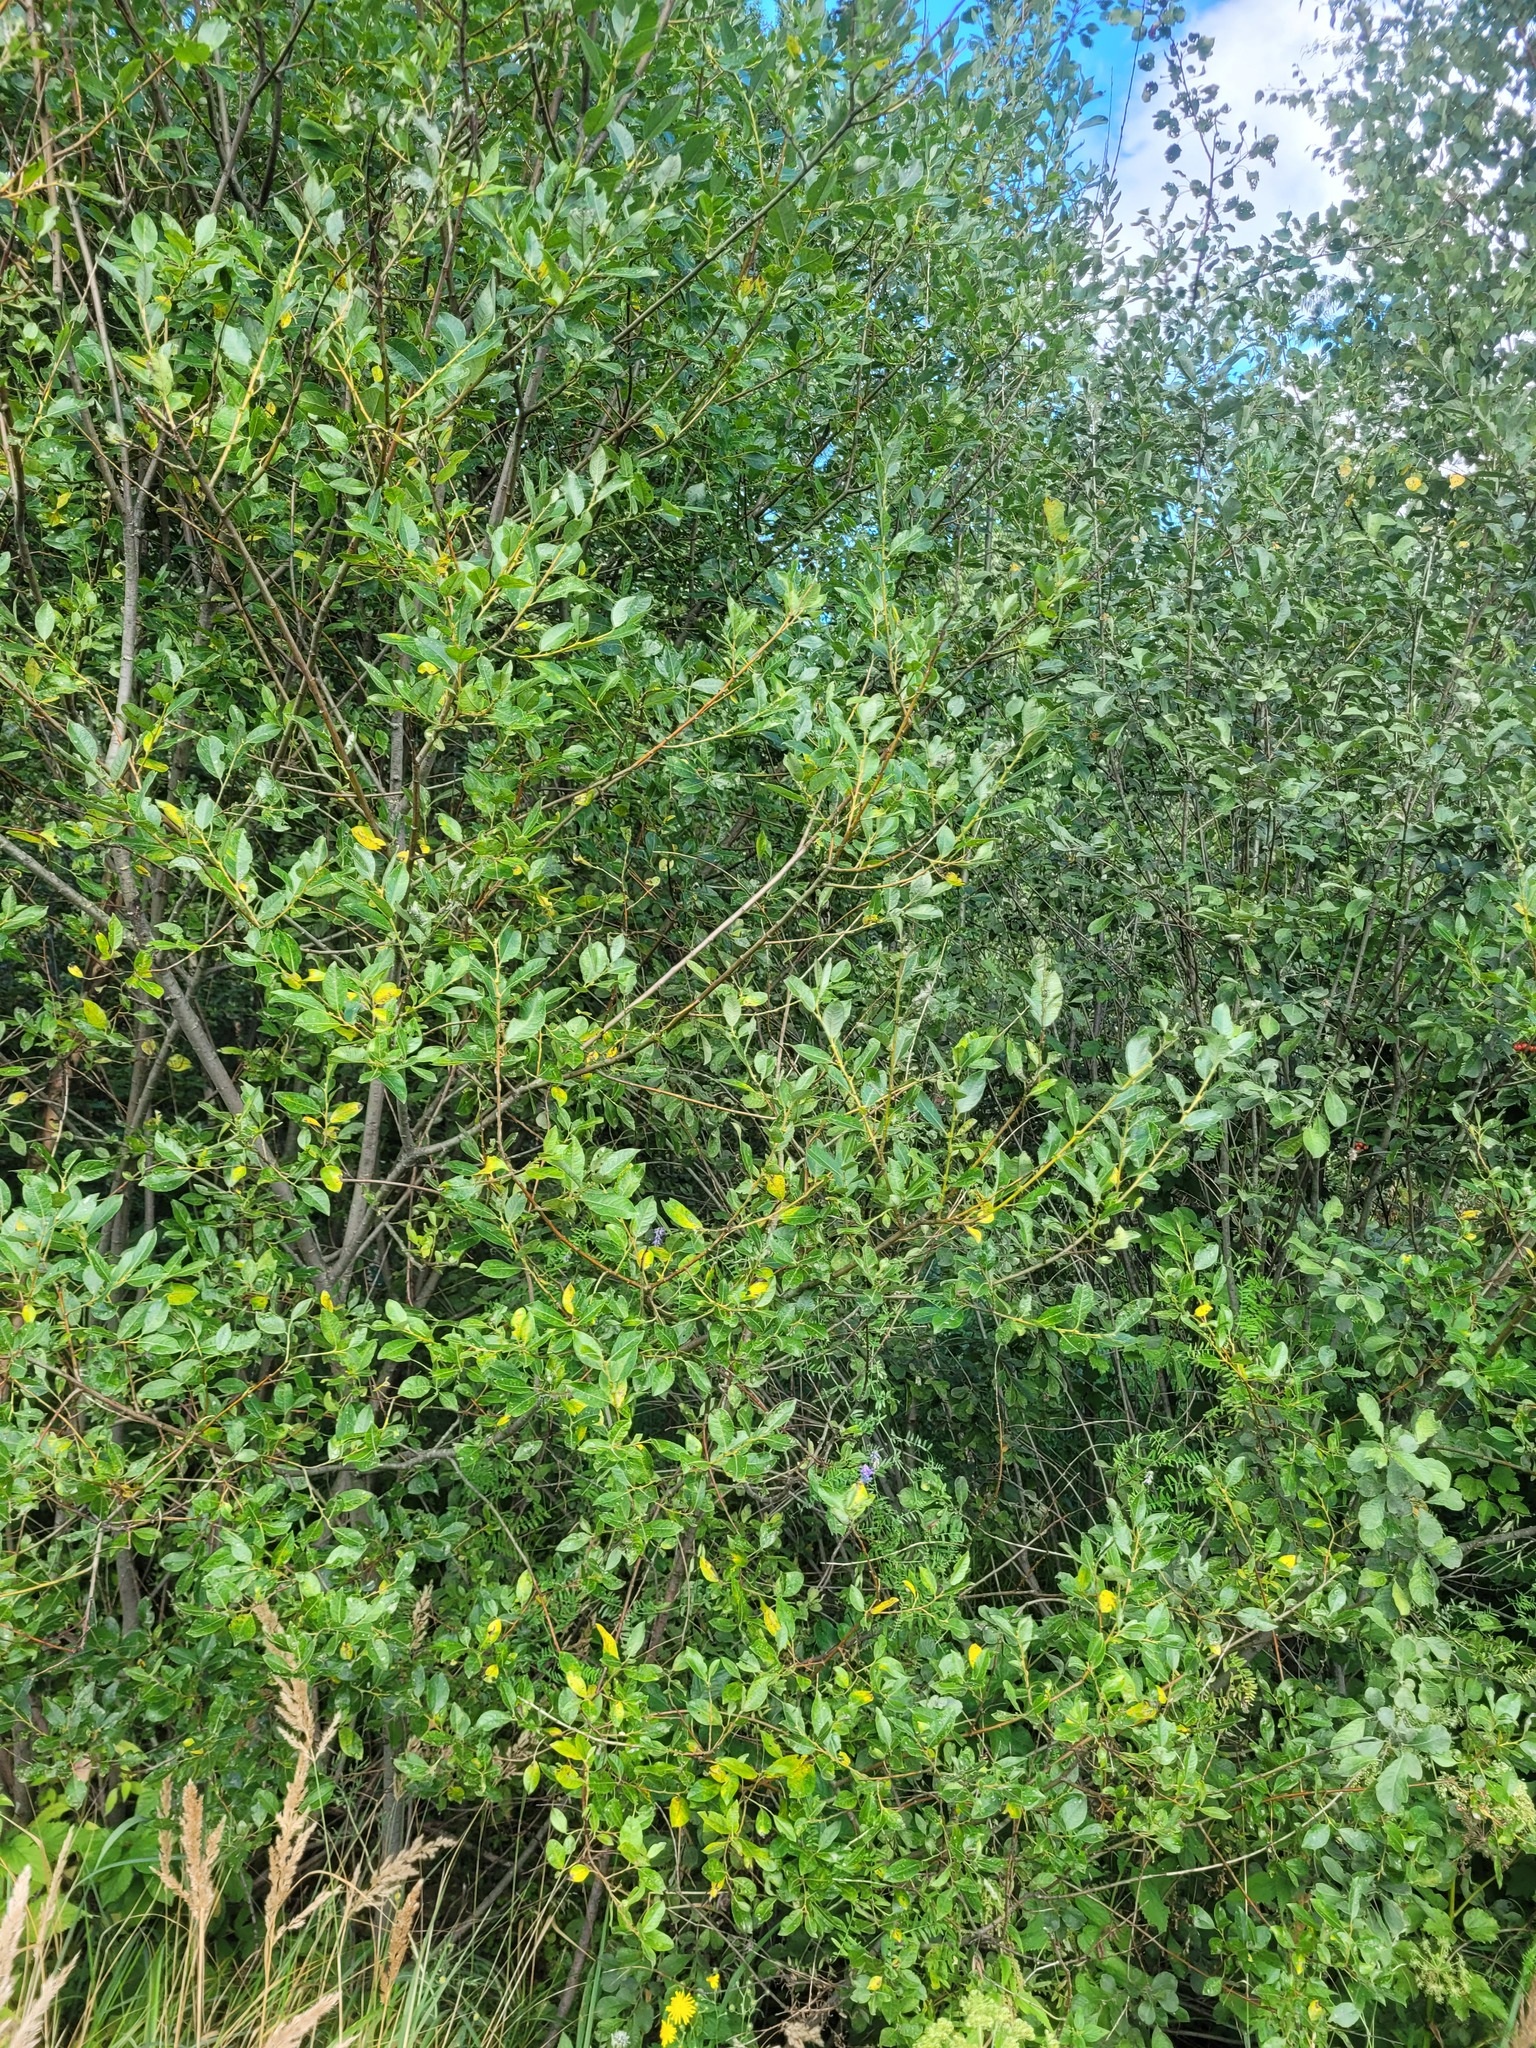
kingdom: Plantae
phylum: Tracheophyta
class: Magnoliopsida
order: Malpighiales
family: Salicaceae
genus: Salix
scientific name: Salix myrsinifolia
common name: Dark-leaved willow
